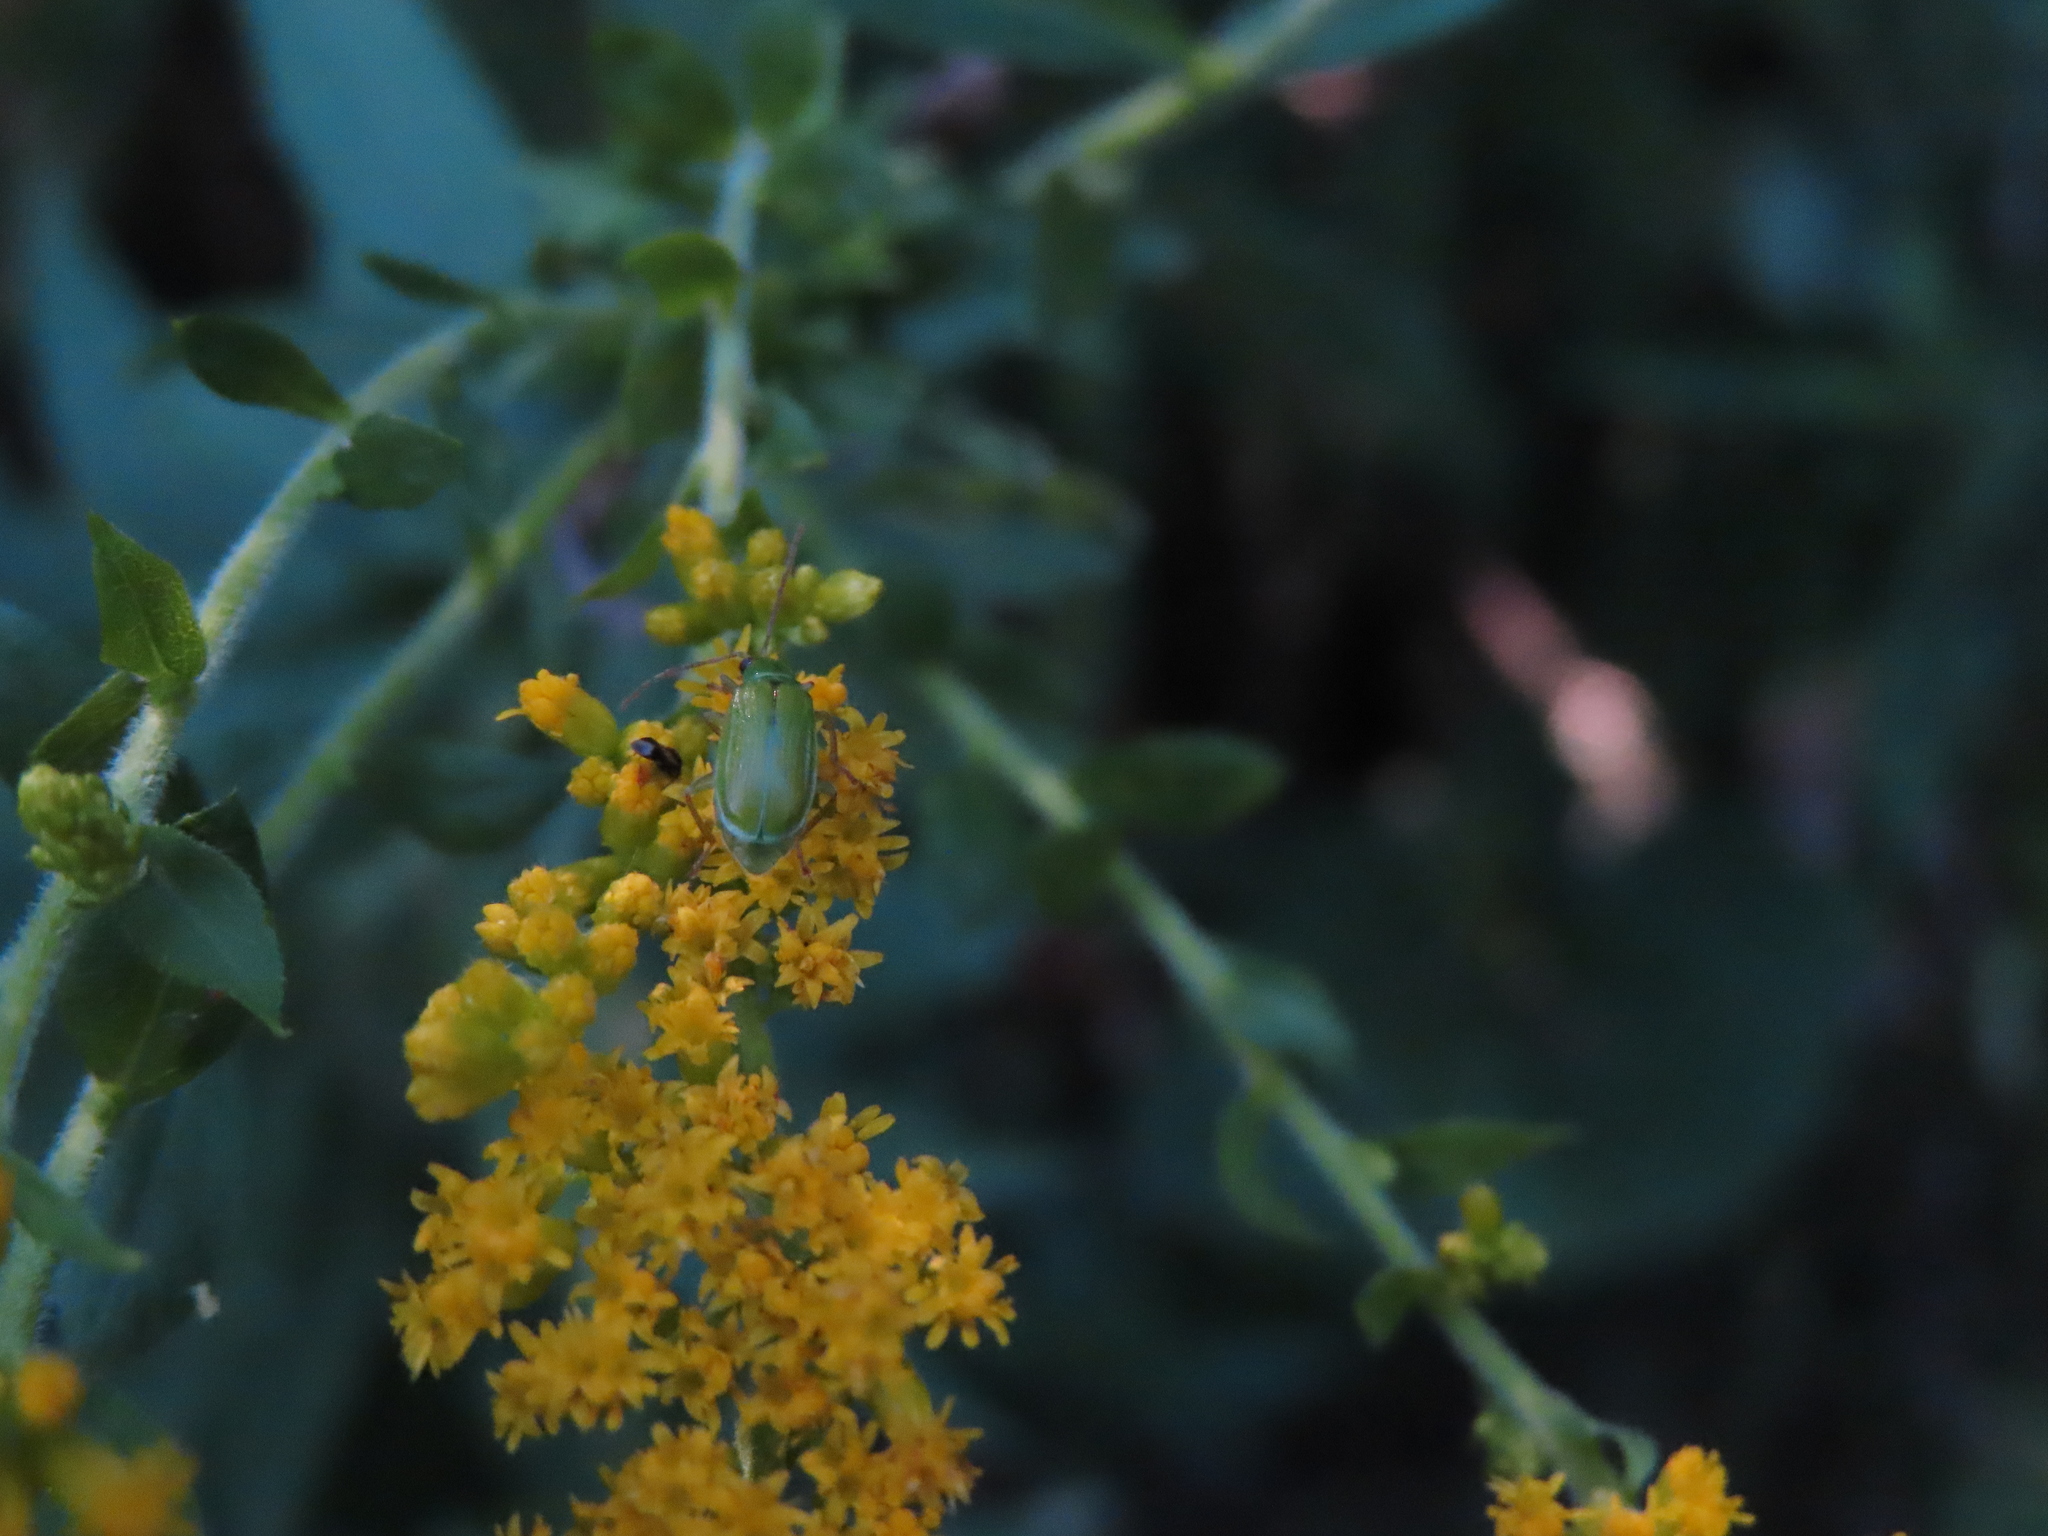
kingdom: Animalia
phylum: Arthropoda
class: Insecta
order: Coleoptera
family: Chrysomelidae
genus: Diabrotica
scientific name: Diabrotica barberi
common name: Northern corn rootworm
